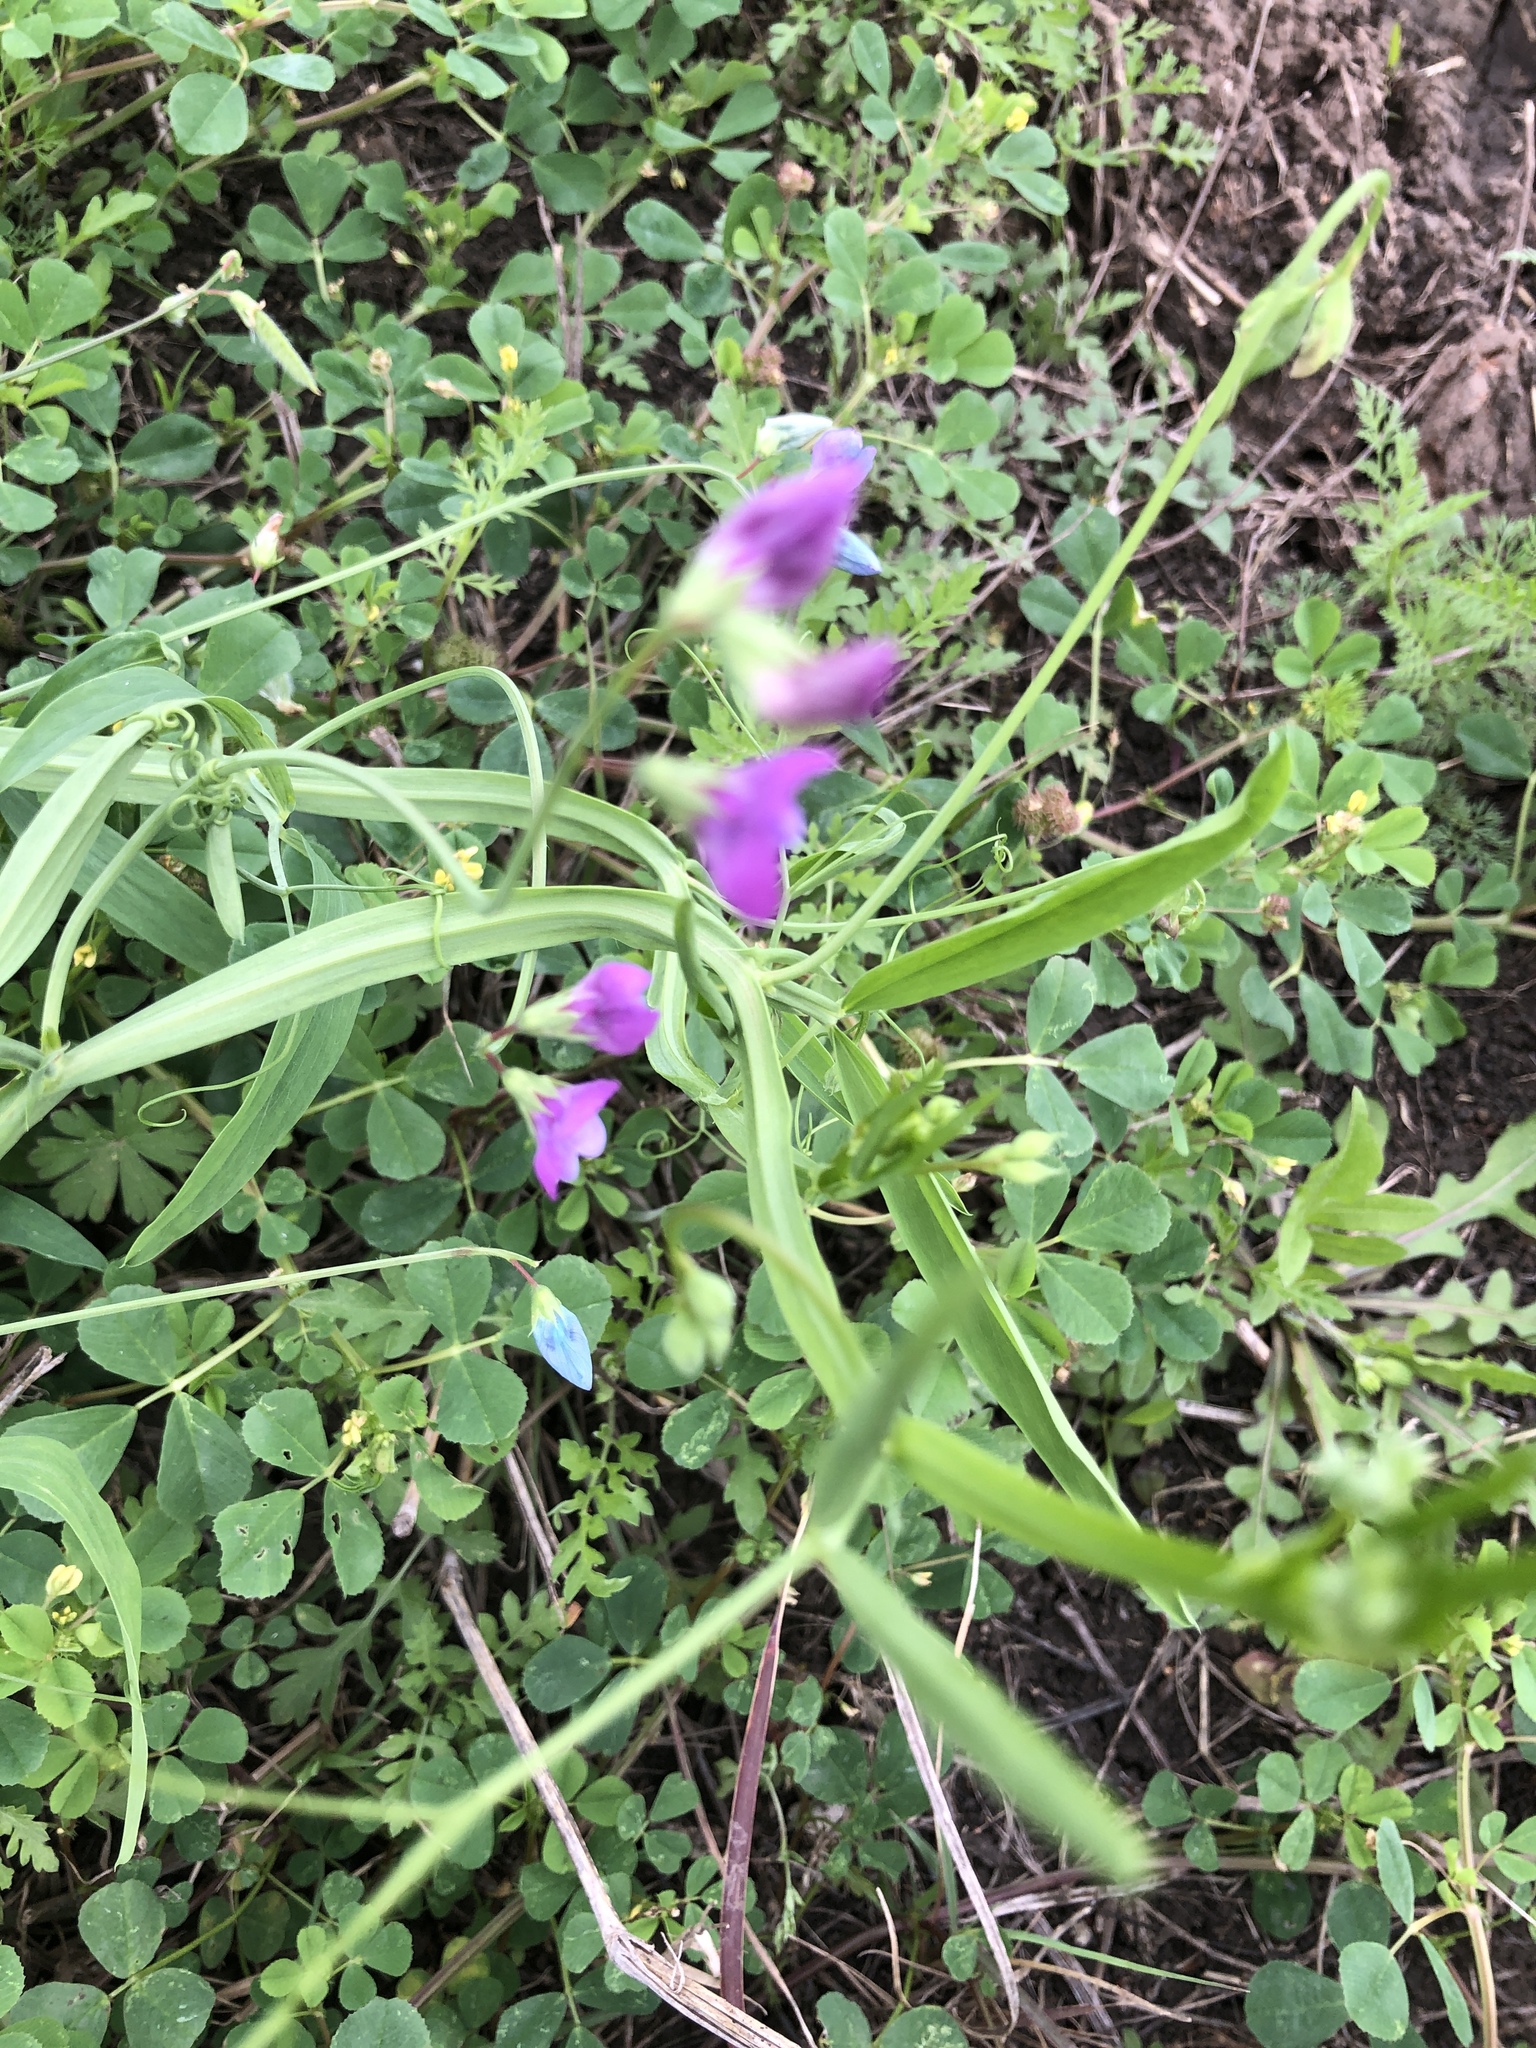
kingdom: Plantae
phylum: Tracheophyta
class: Magnoliopsida
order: Fabales
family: Fabaceae
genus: Lathyrus
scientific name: Lathyrus hirsutus
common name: Hairy vetchling
